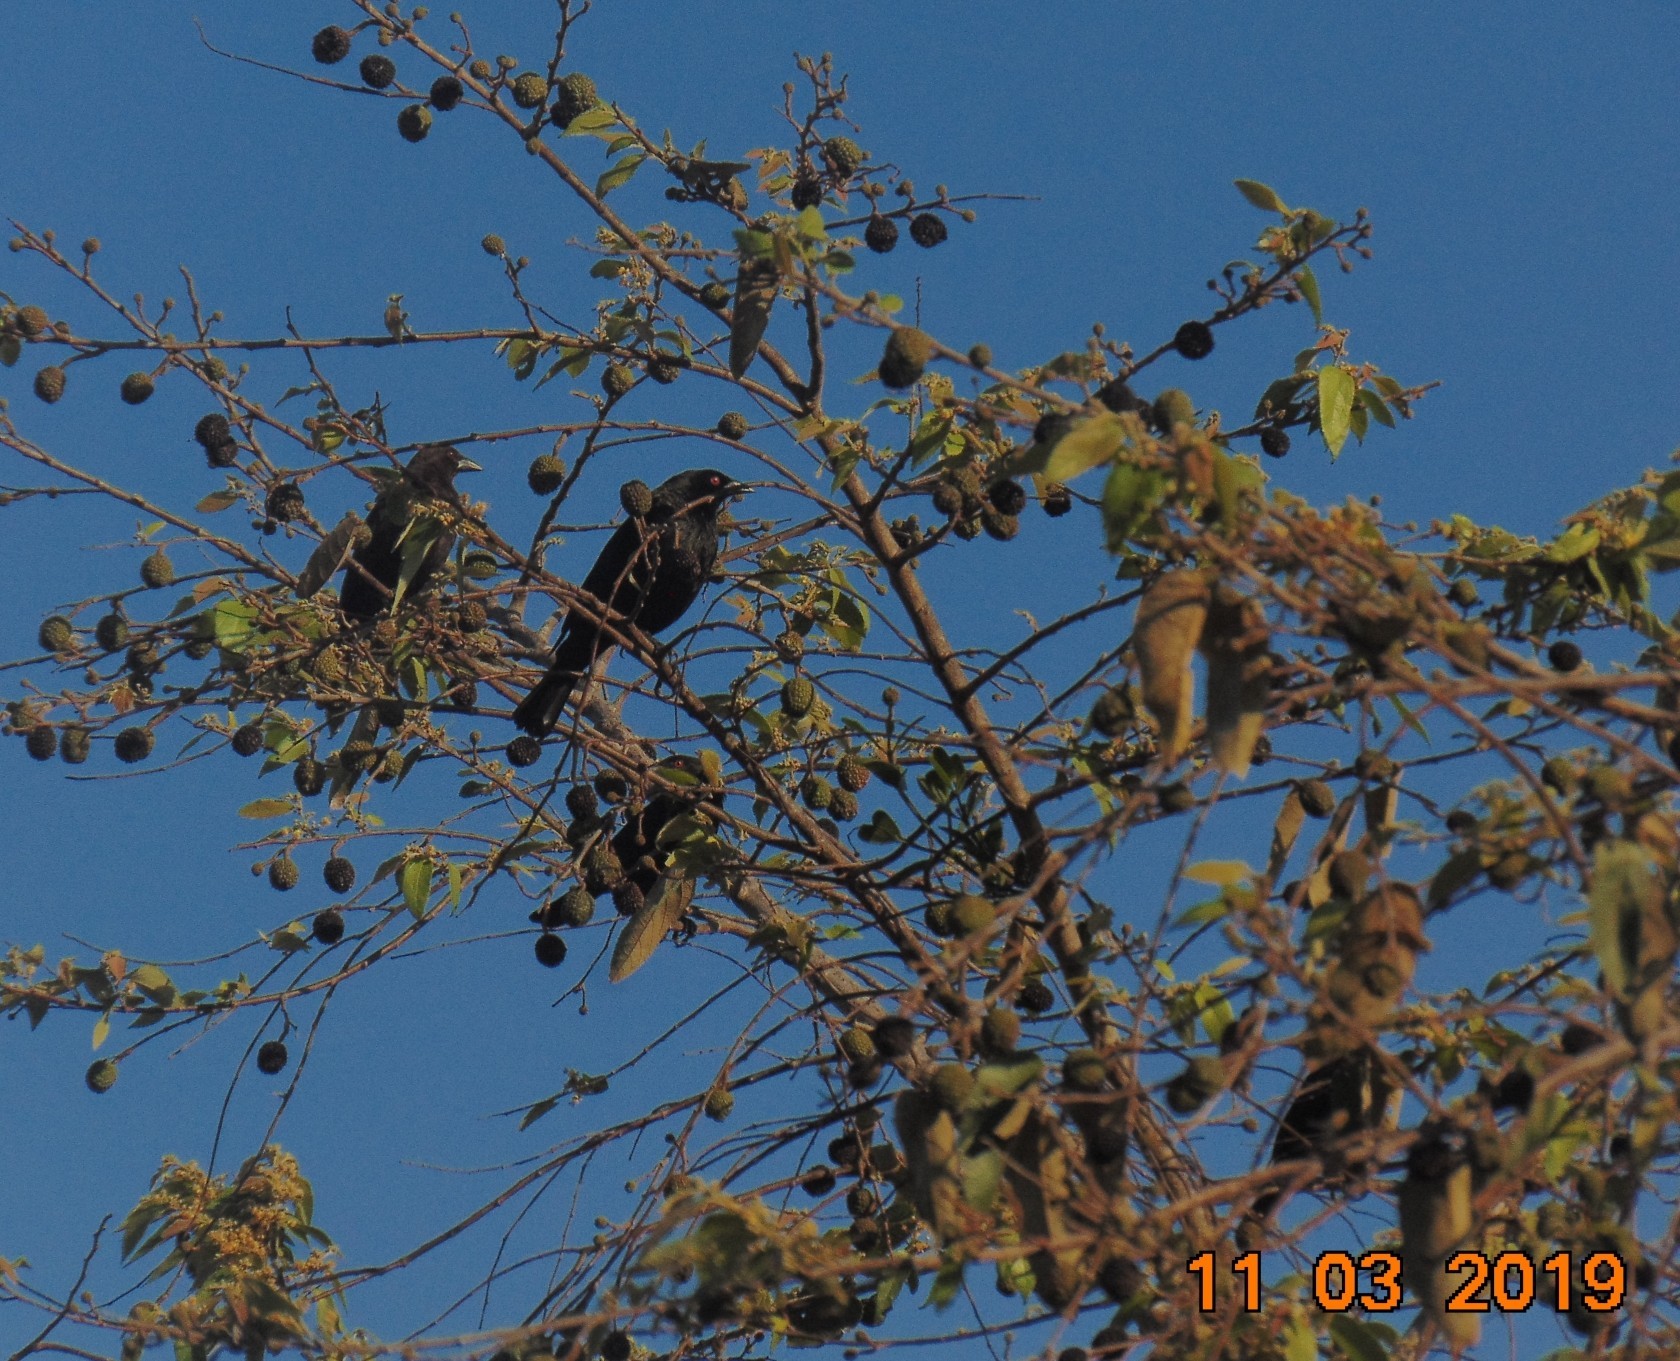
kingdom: Animalia
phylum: Chordata
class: Aves
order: Passeriformes
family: Icteridae
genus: Molothrus
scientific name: Molothrus aeneus
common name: Bronzed cowbird
